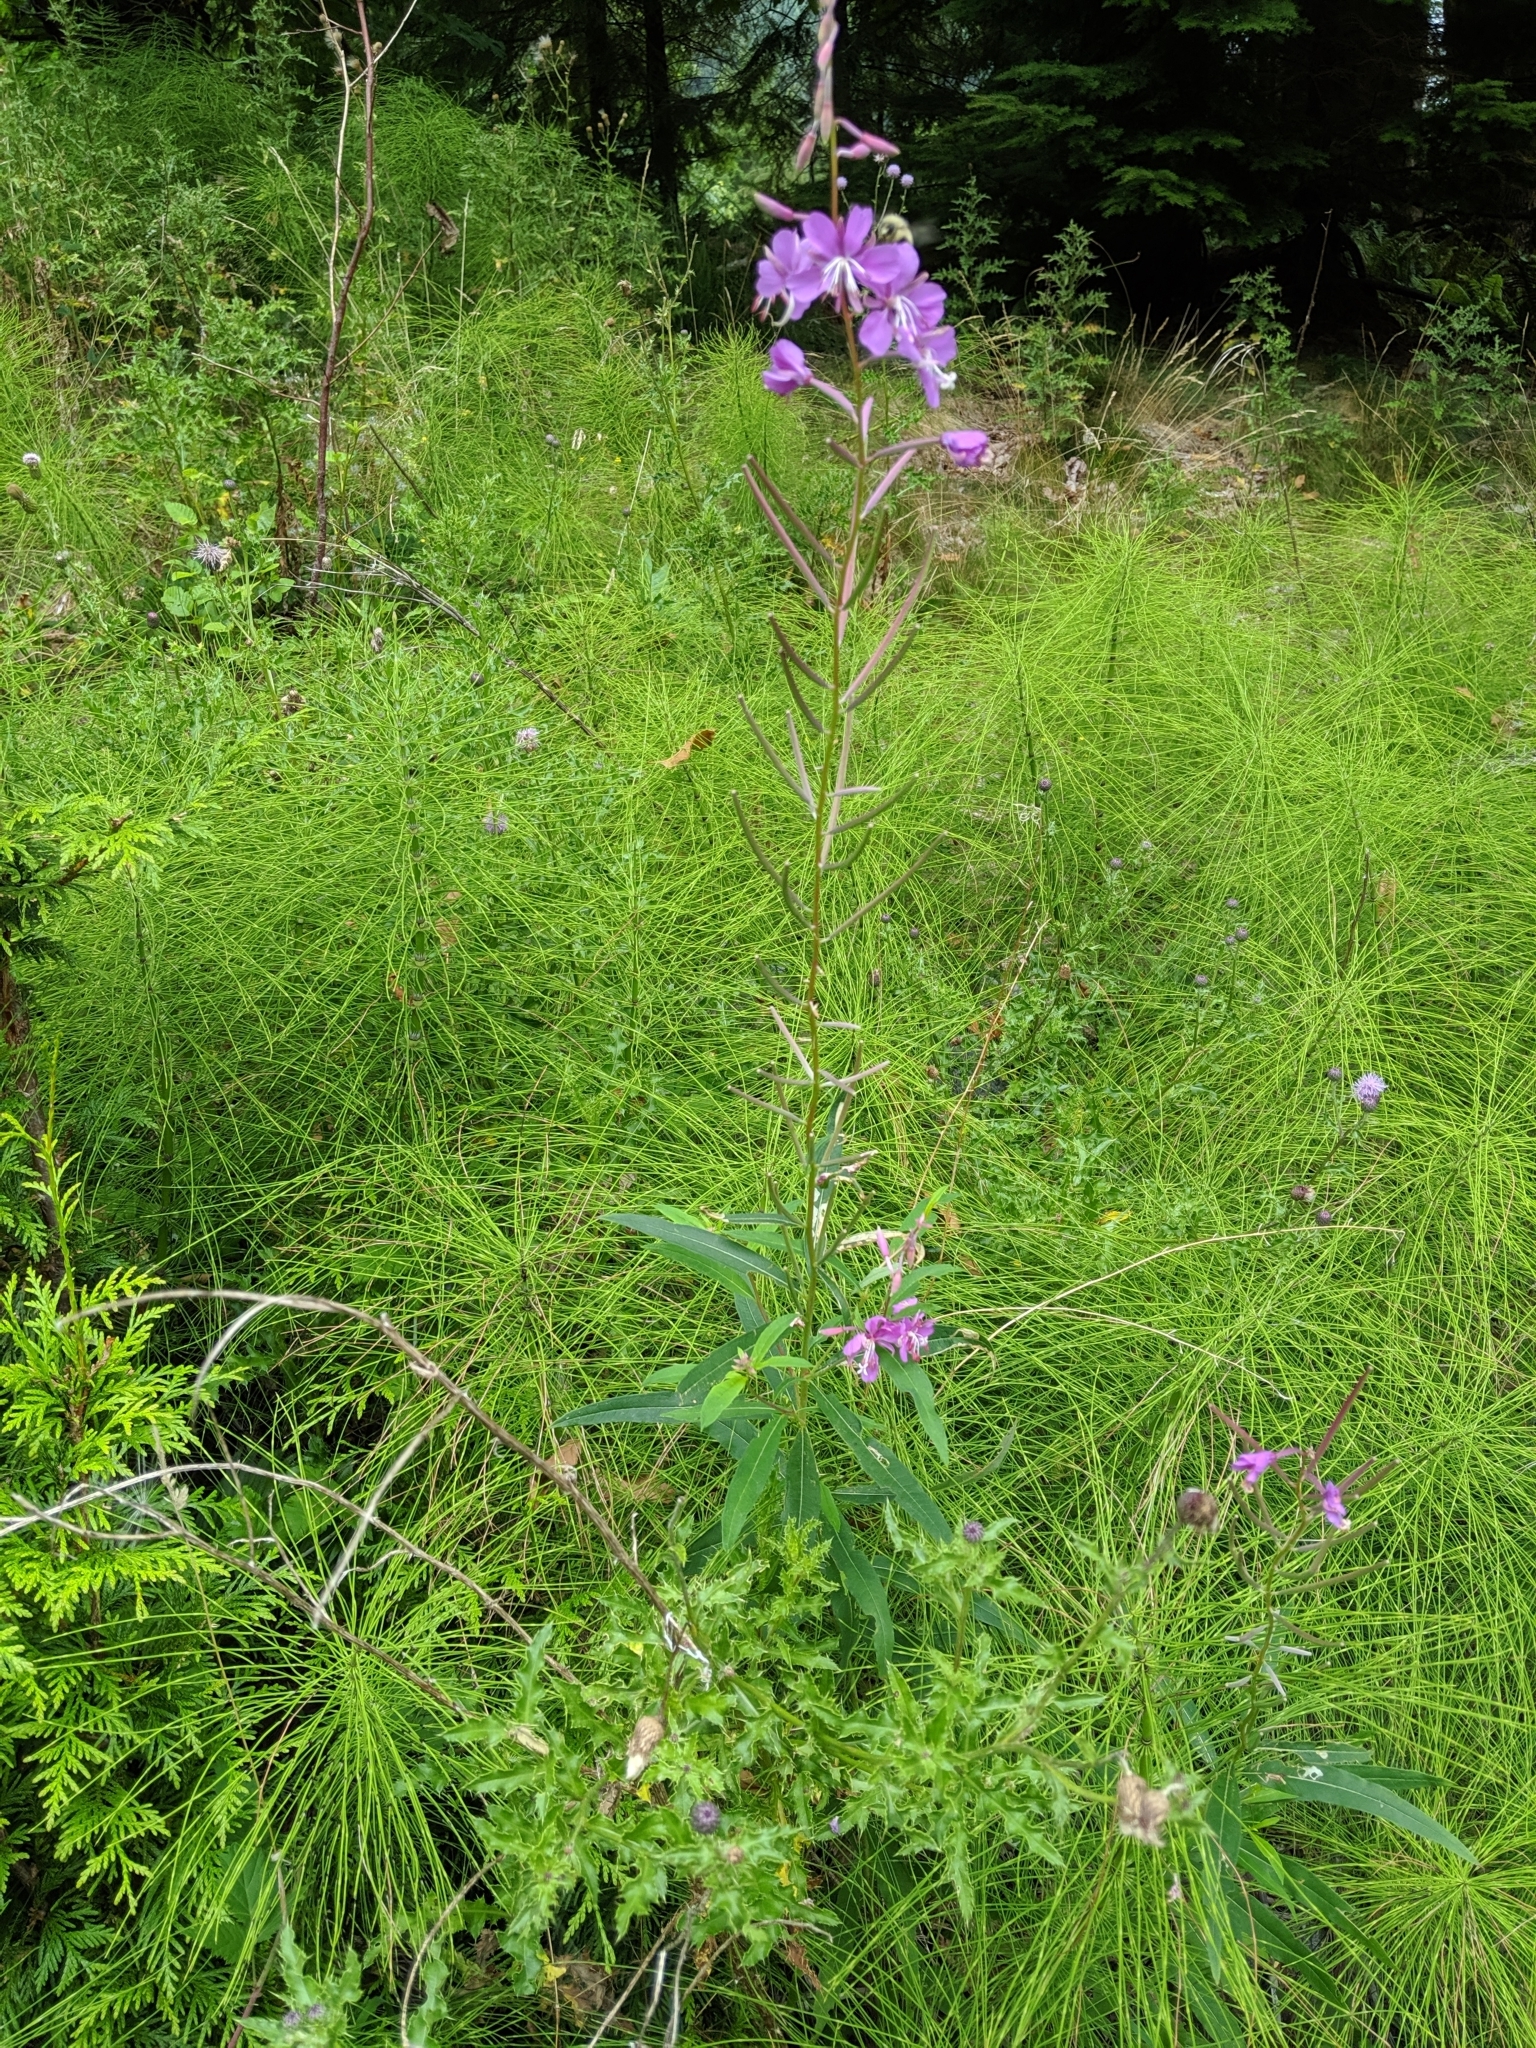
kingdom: Plantae
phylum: Tracheophyta
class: Magnoliopsida
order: Myrtales
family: Onagraceae
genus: Chamaenerion
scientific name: Chamaenerion angustifolium
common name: Fireweed
